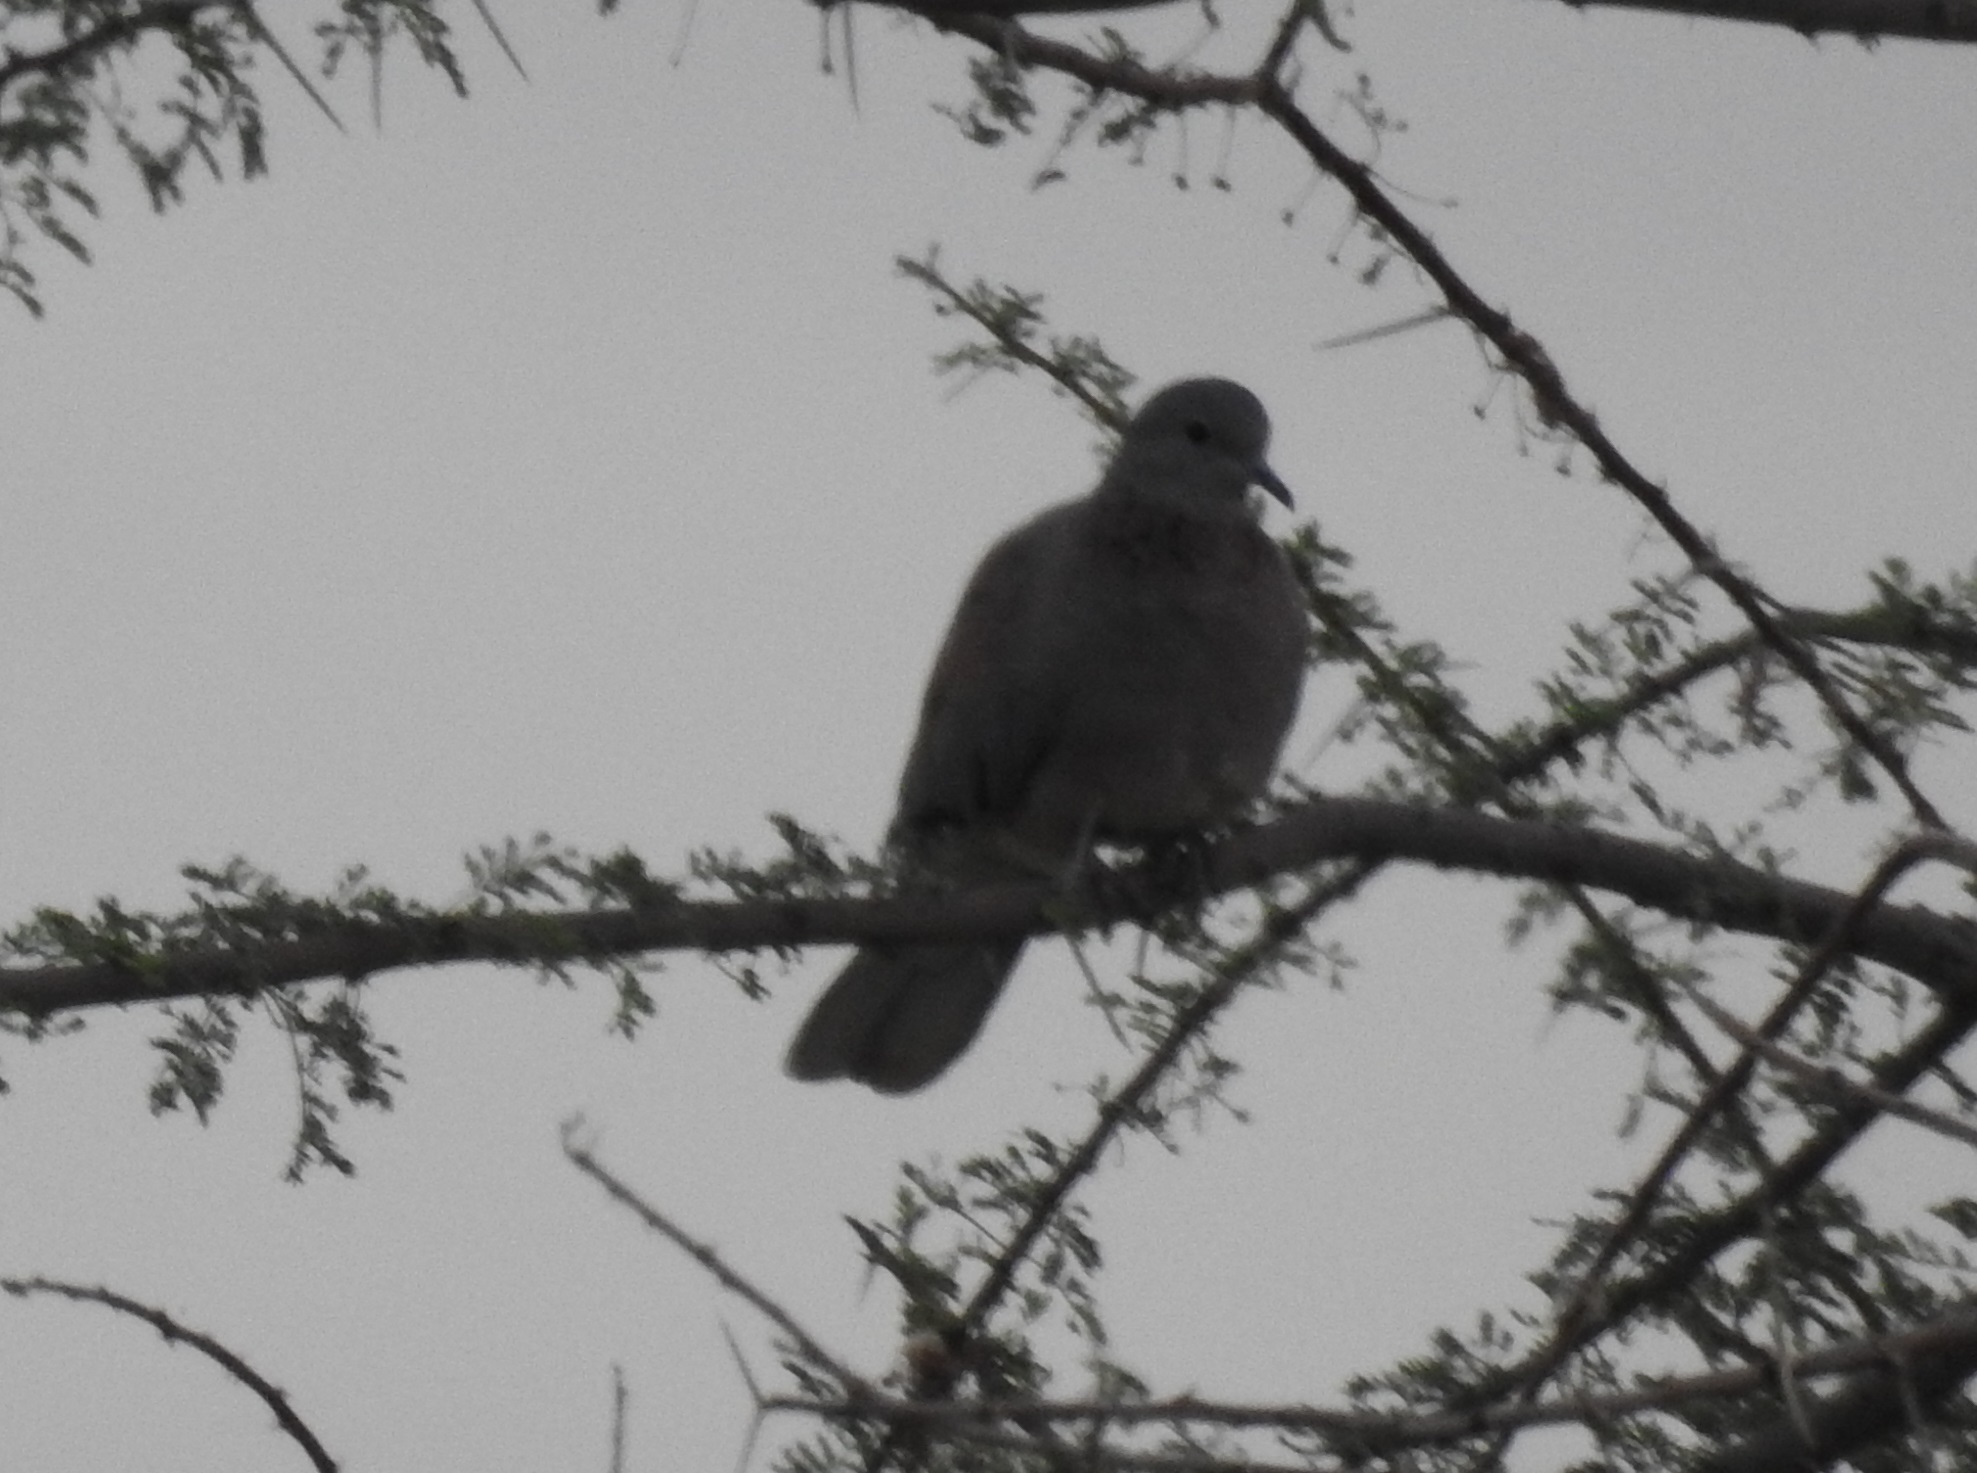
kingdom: Animalia
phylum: Chordata
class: Aves
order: Columbiformes
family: Columbidae
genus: Spilopelia
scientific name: Spilopelia senegalensis
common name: Laughing dove
